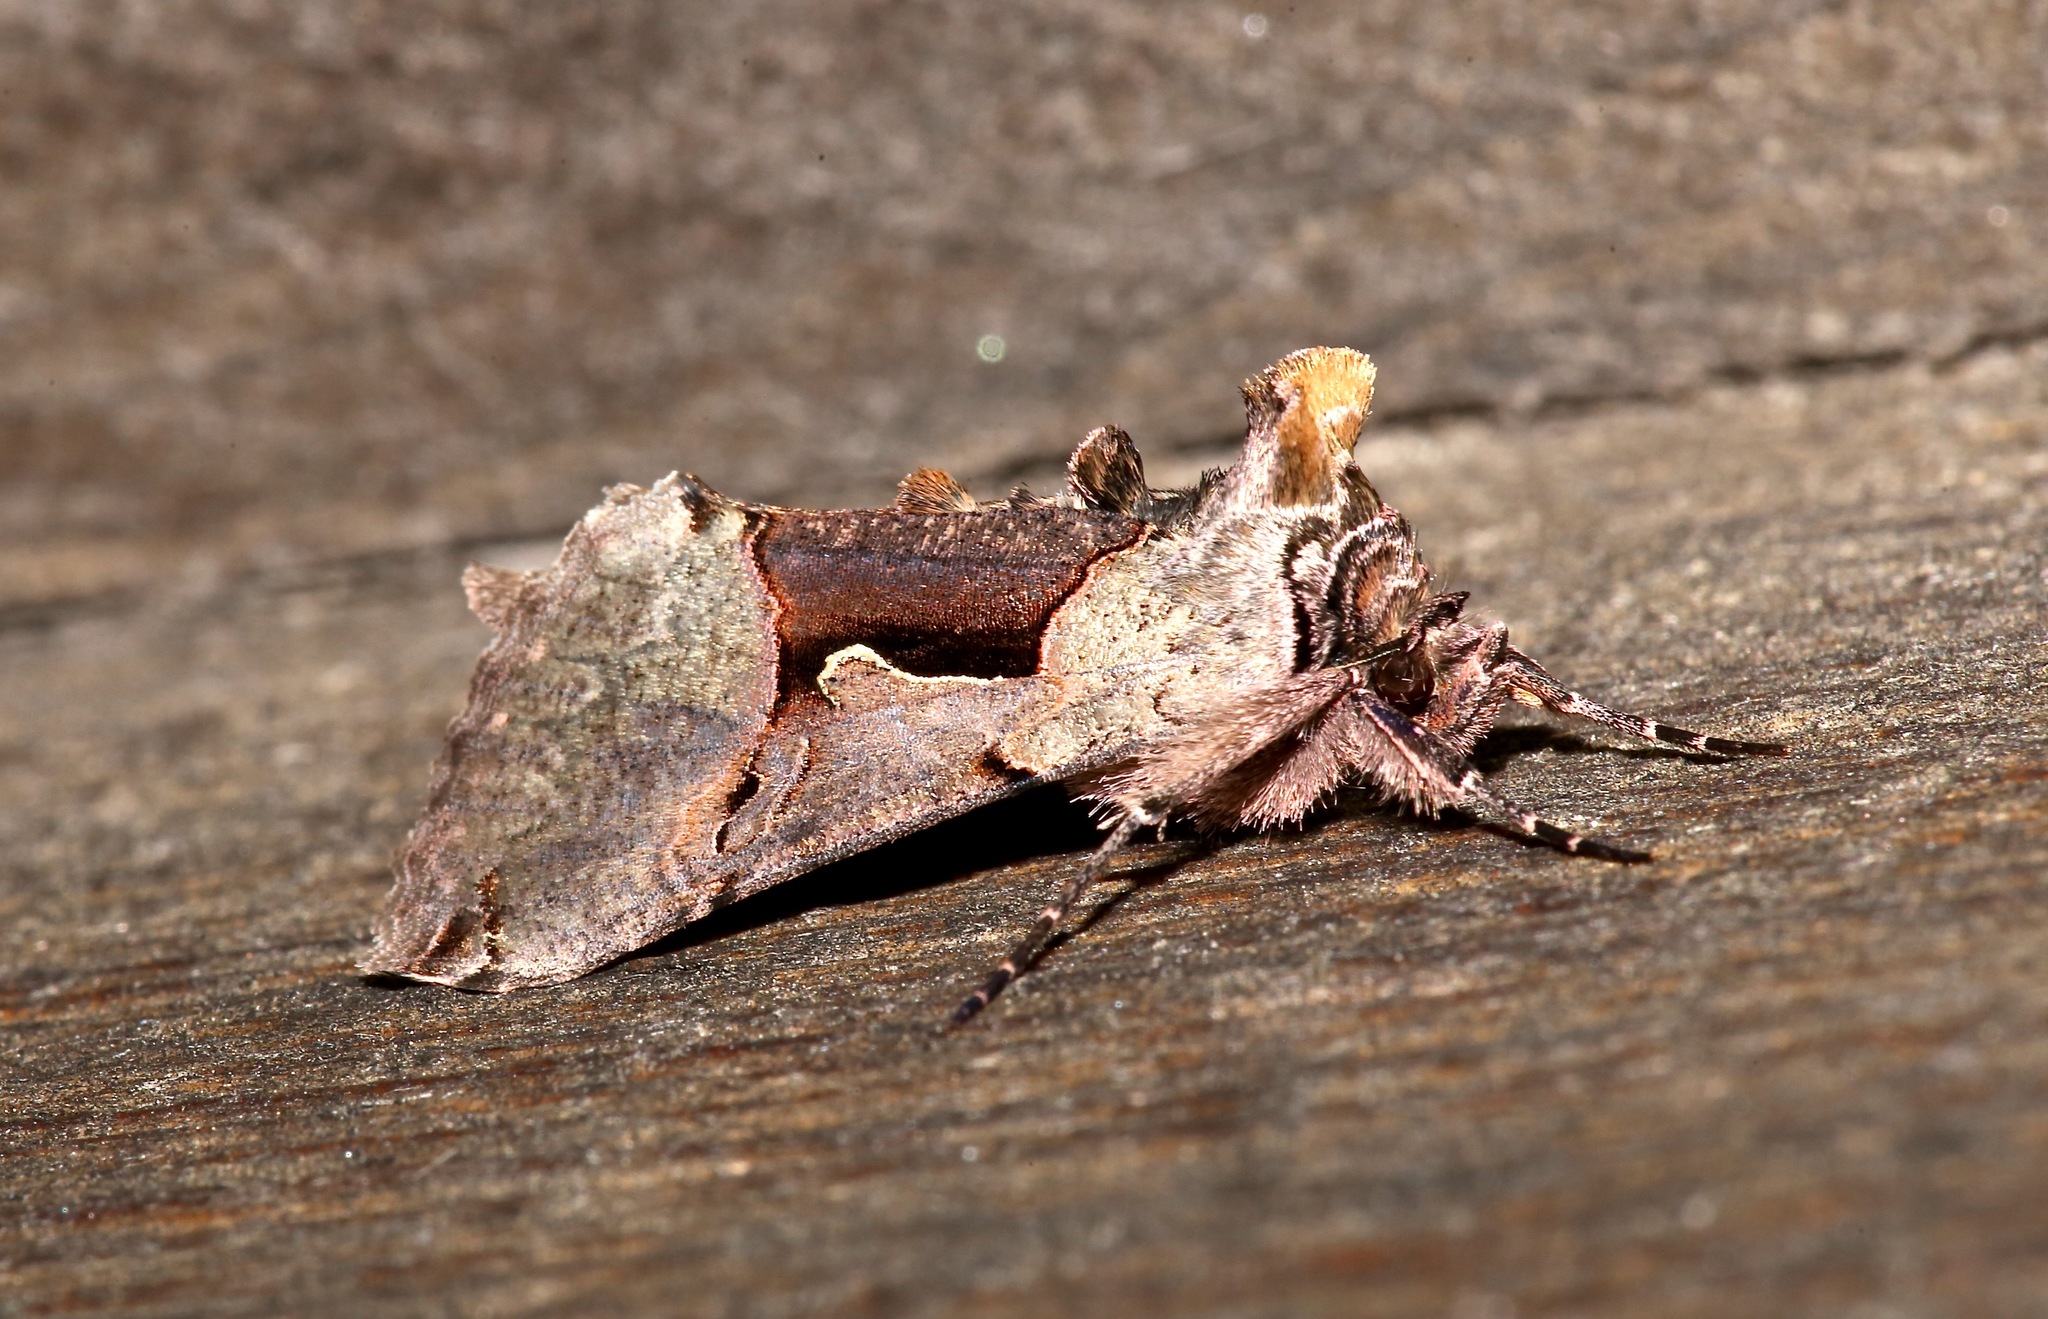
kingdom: Animalia
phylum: Arthropoda
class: Insecta
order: Lepidoptera
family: Noctuidae
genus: Autographa
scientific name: Autographa ampla
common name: Large looper moth
